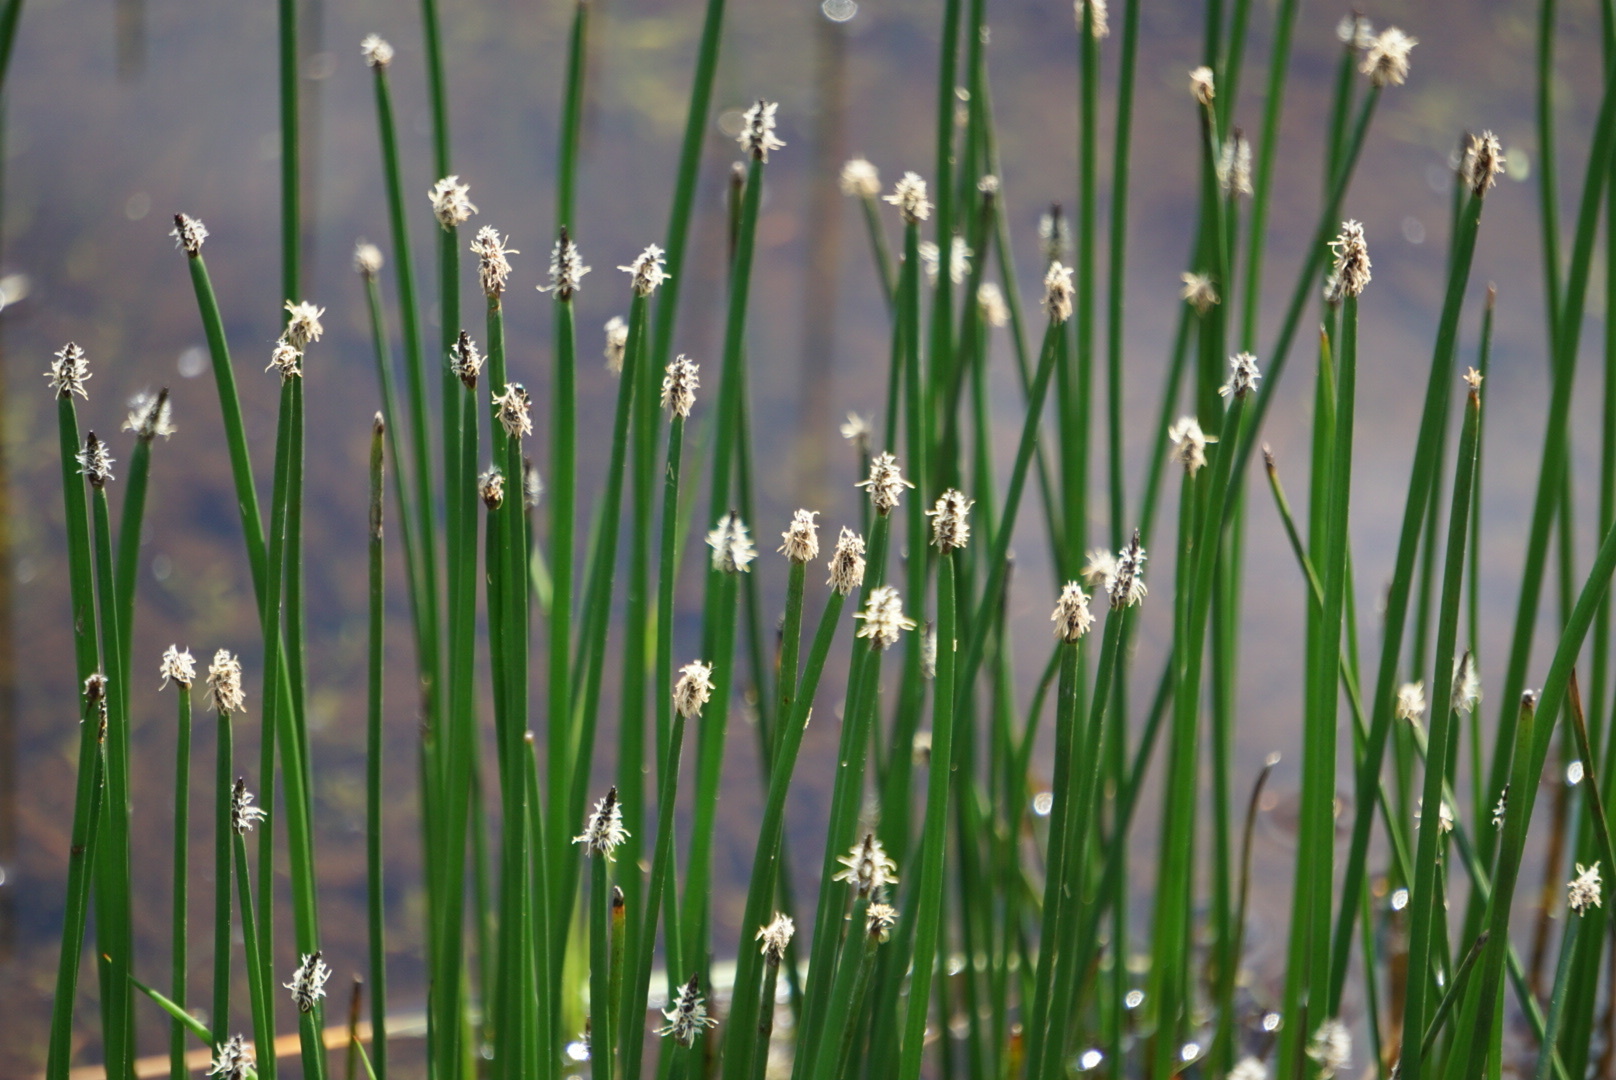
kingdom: Plantae
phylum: Tracheophyta
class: Liliopsida
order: Poales
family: Cyperaceae
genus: Eleocharis
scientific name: Eleocharis palustris
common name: Common spike-rush
